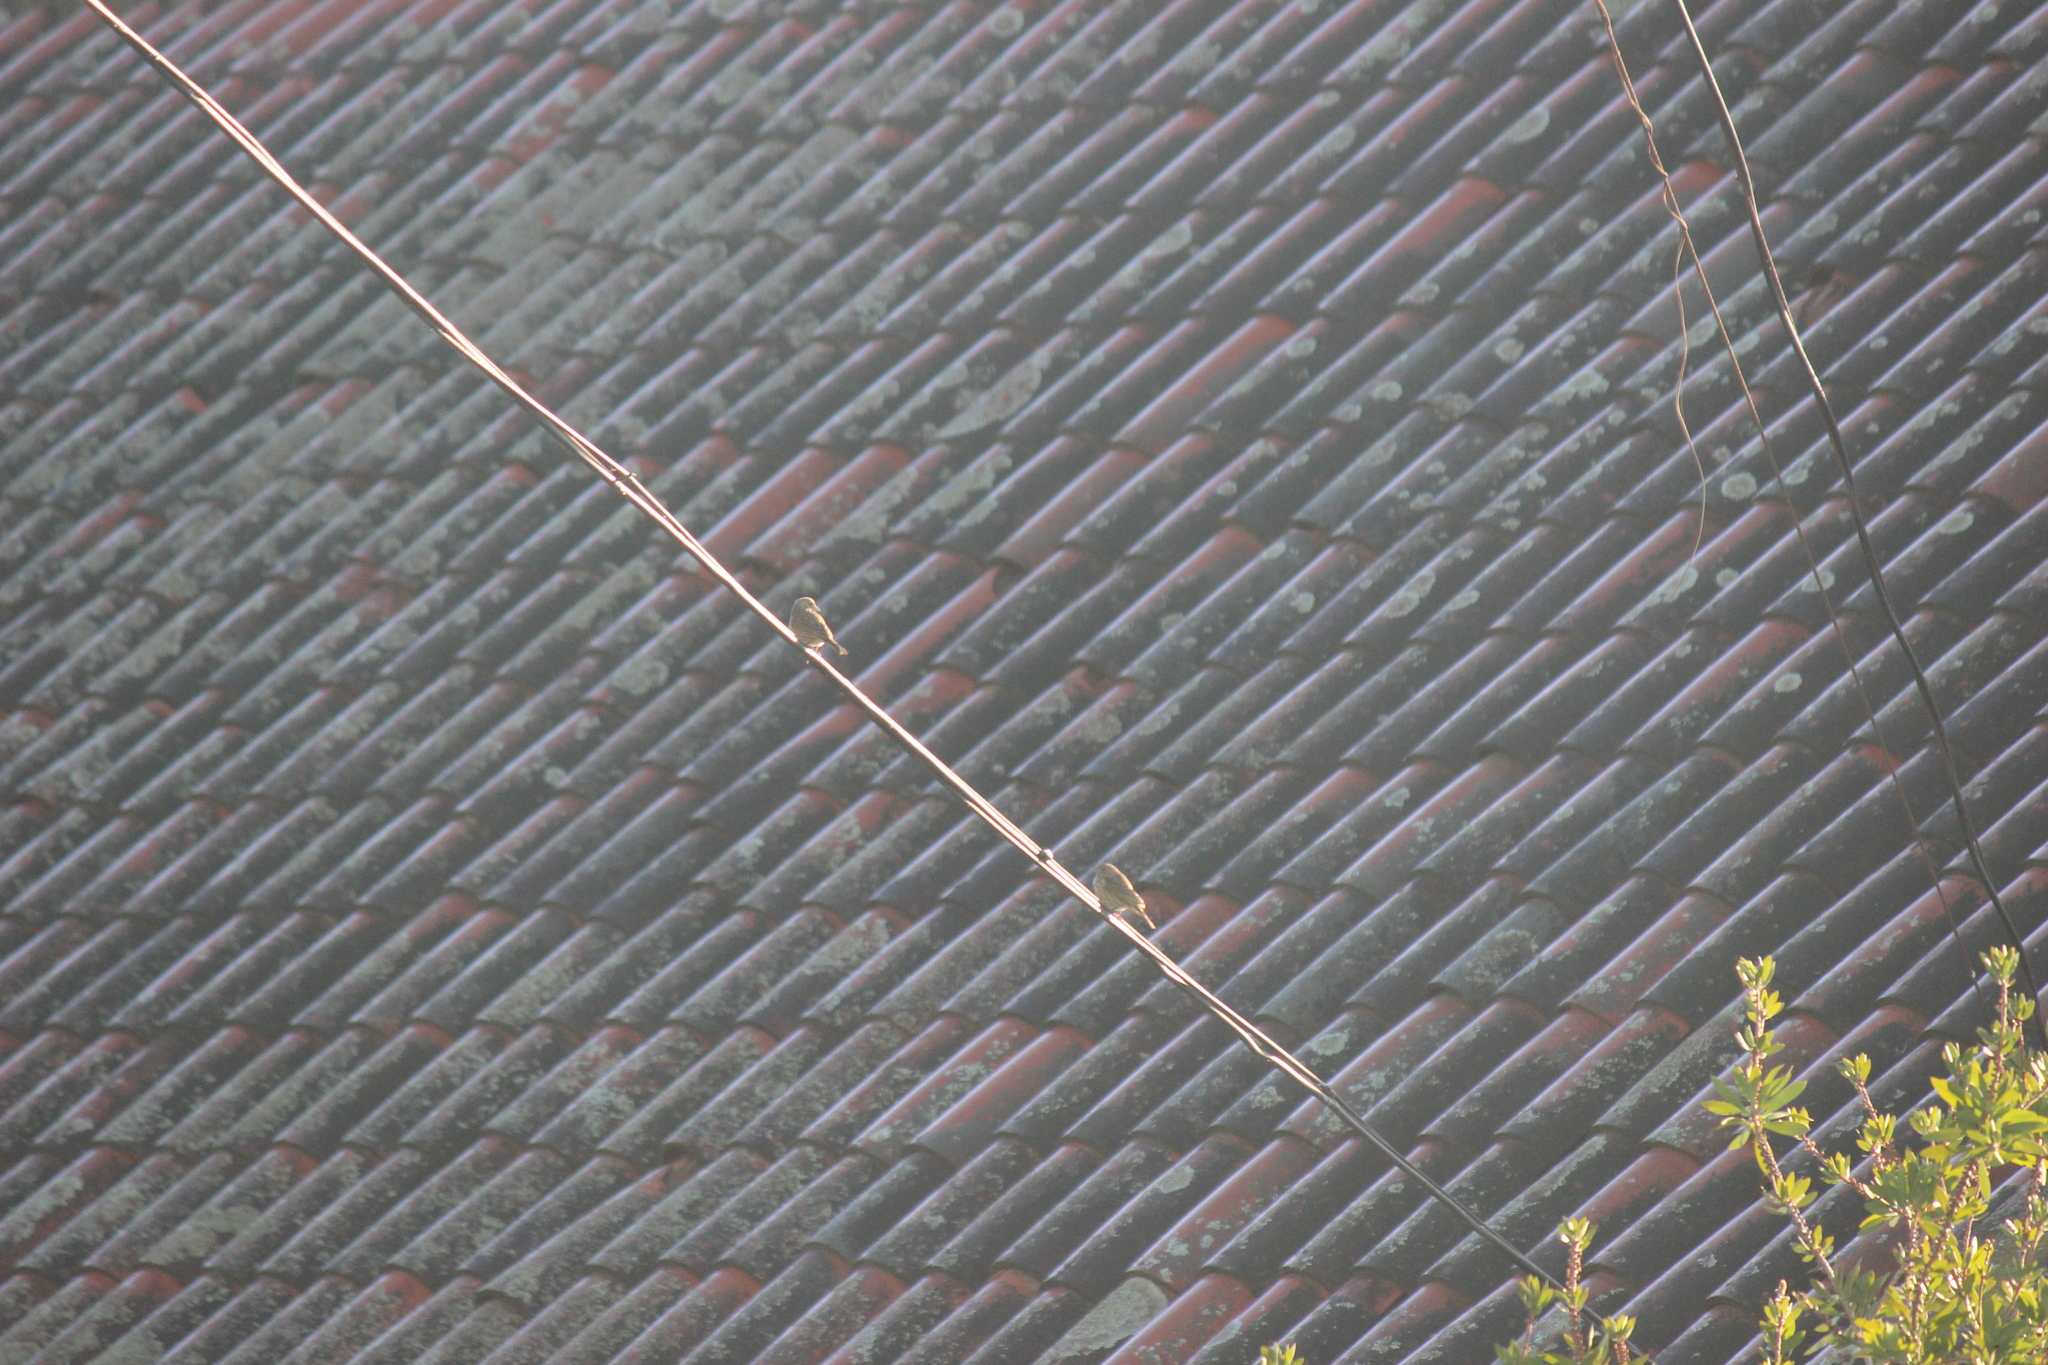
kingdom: Animalia
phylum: Chordata
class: Aves
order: Passeriformes
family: Thraupidae
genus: Sicalis
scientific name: Sicalis flaveola
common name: Saffron finch
